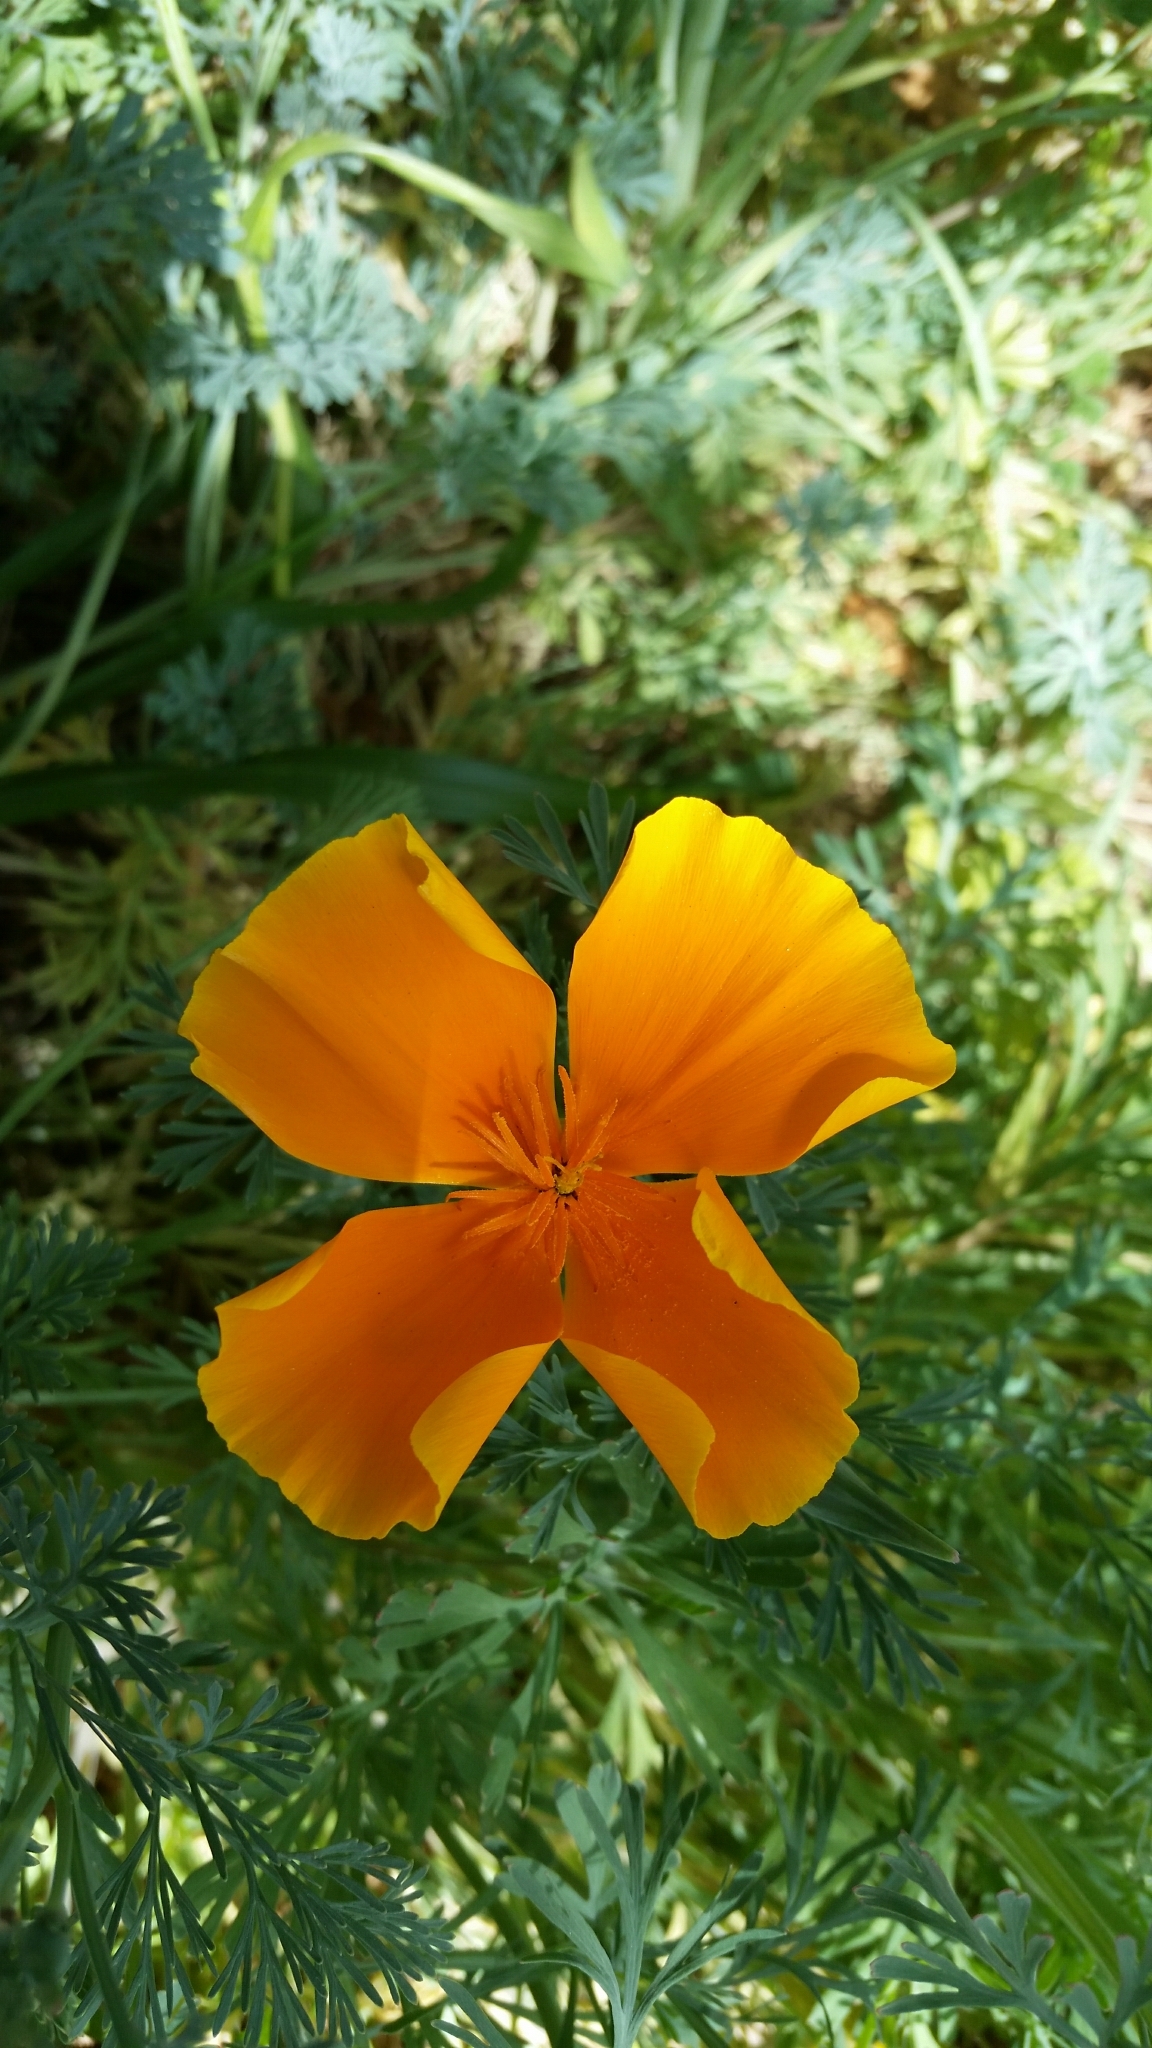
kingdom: Plantae
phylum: Tracheophyta
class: Magnoliopsida
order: Ranunculales
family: Papaveraceae
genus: Eschscholzia
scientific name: Eschscholzia californica
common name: California poppy
